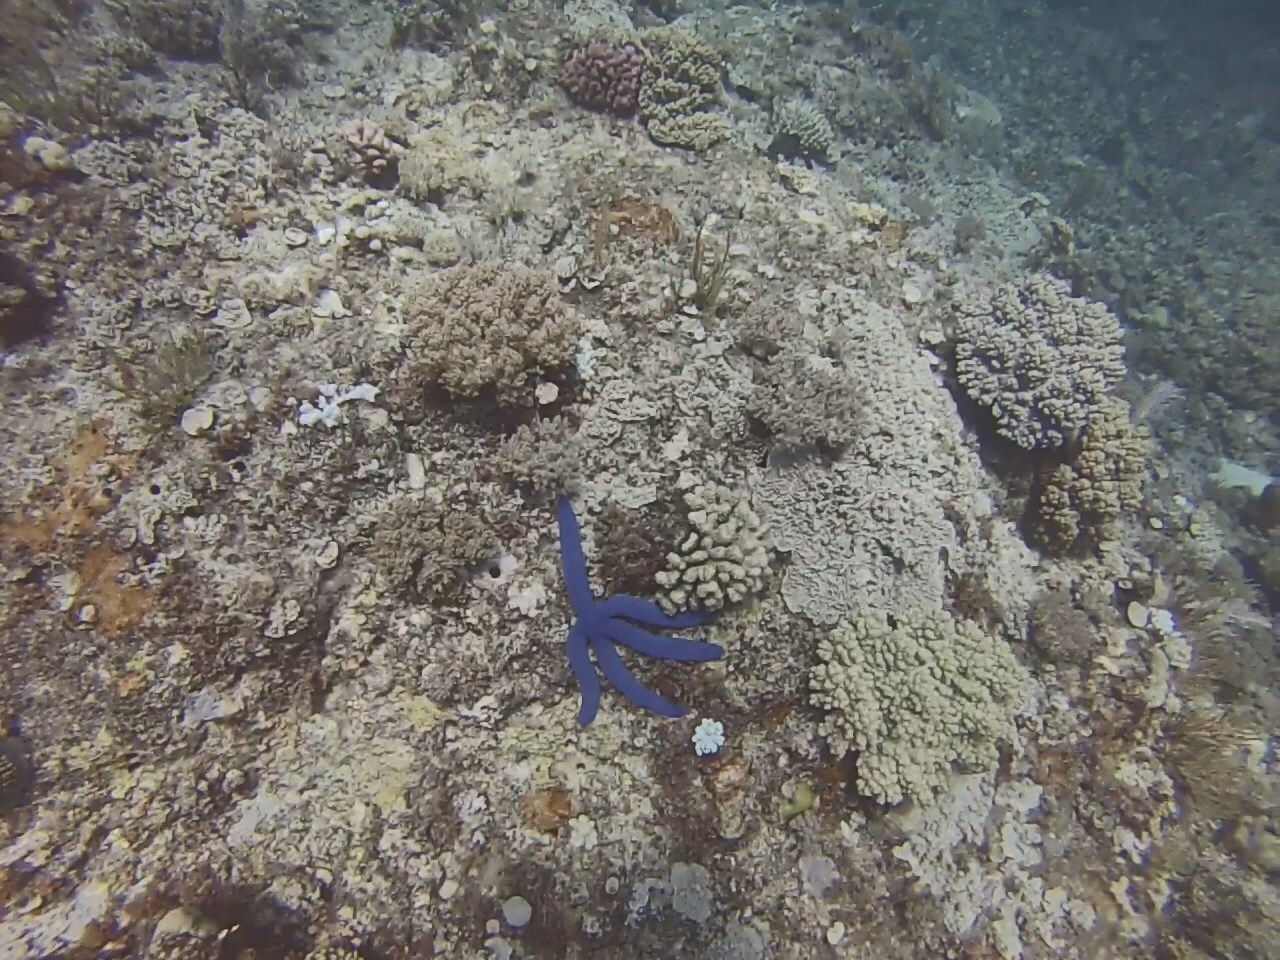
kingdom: Animalia
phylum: Echinodermata
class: Asteroidea
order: Valvatida
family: Ophidiasteridae
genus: Linckia
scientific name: Linckia laevigata
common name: Azure sea star
